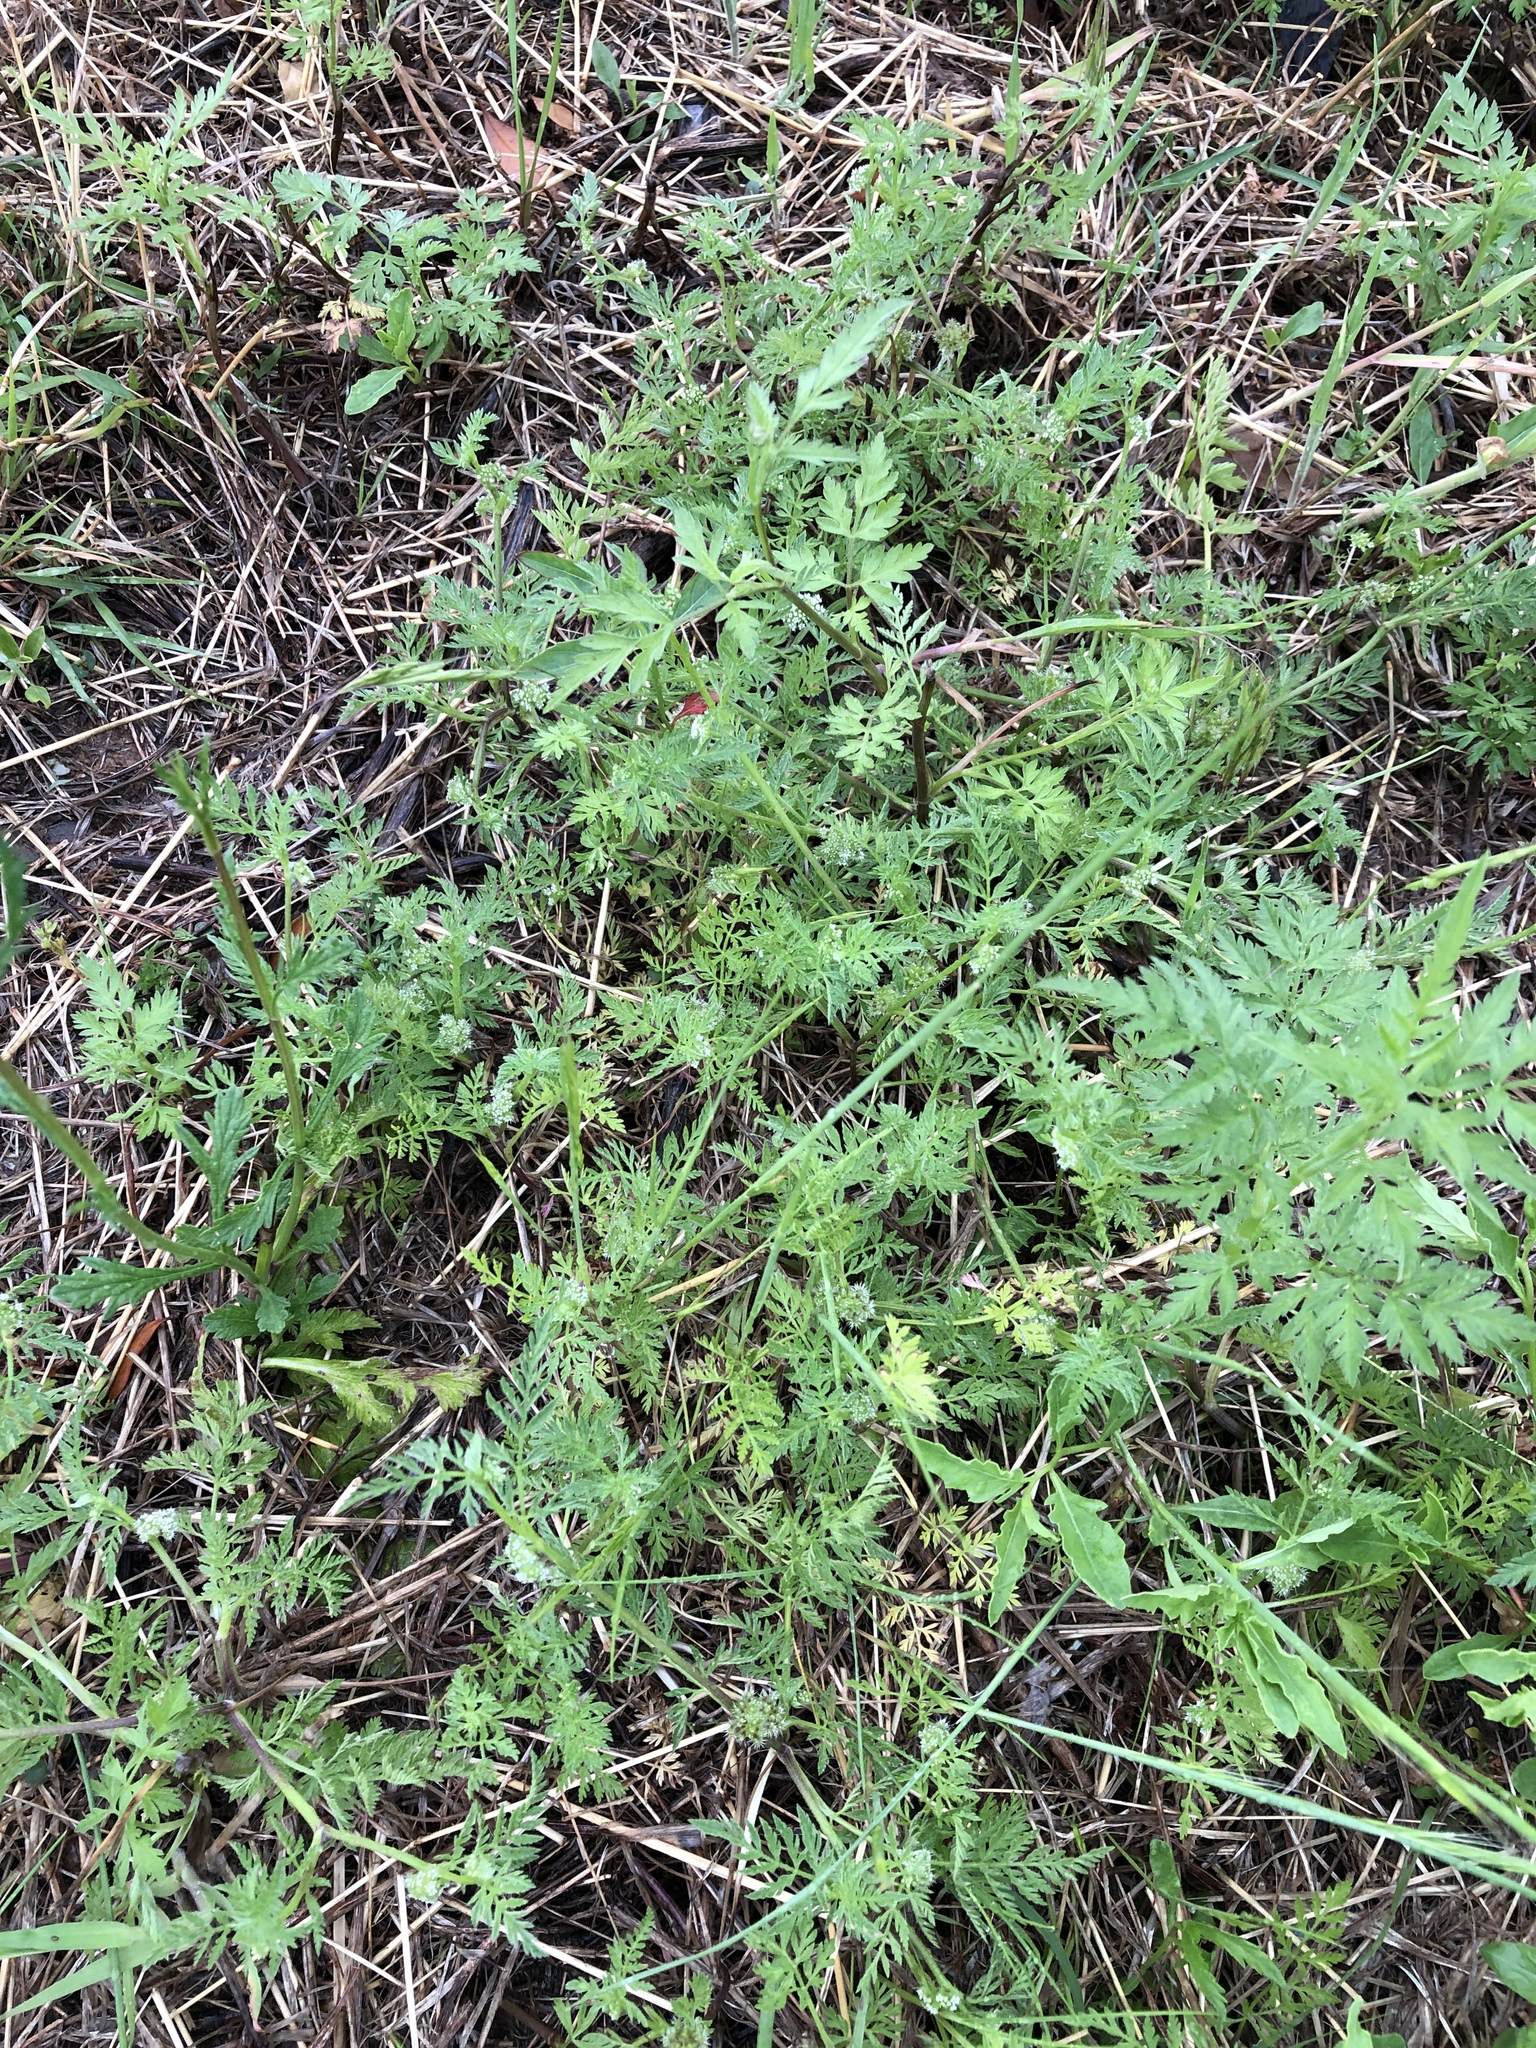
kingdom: Plantae
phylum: Tracheophyta
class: Magnoliopsida
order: Apiales
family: Apiaceae
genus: Torilis
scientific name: Torilis nodosa
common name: Knotted hedge-parsley
